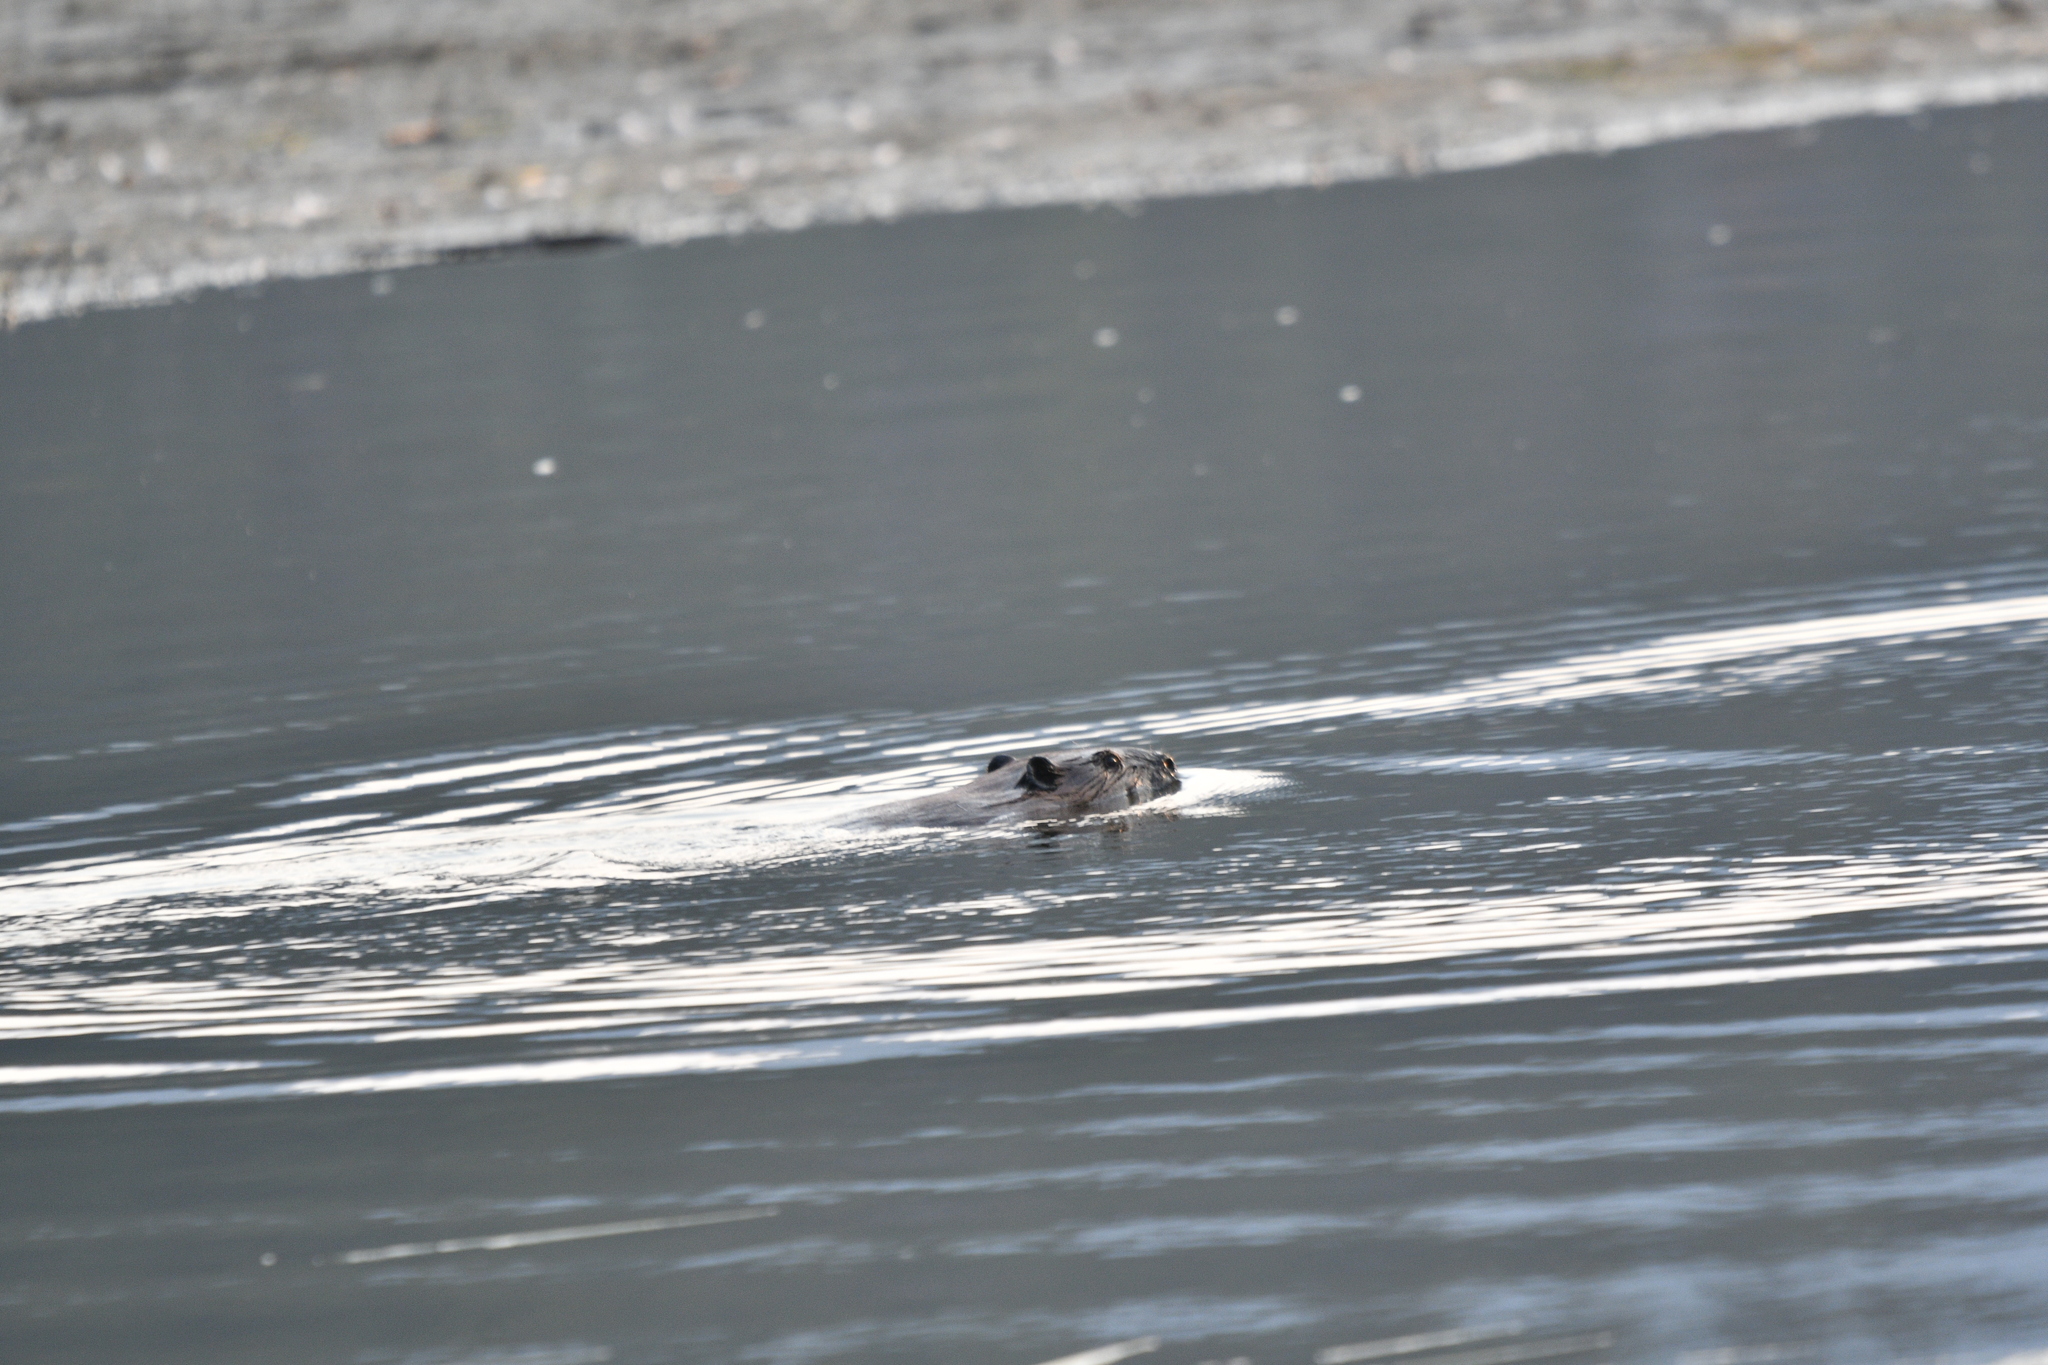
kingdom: Animalia
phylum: Chordata
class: Mammalia
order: Rodentia
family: Castoridae
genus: Castor
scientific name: Castor canadensis
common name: American beaver
